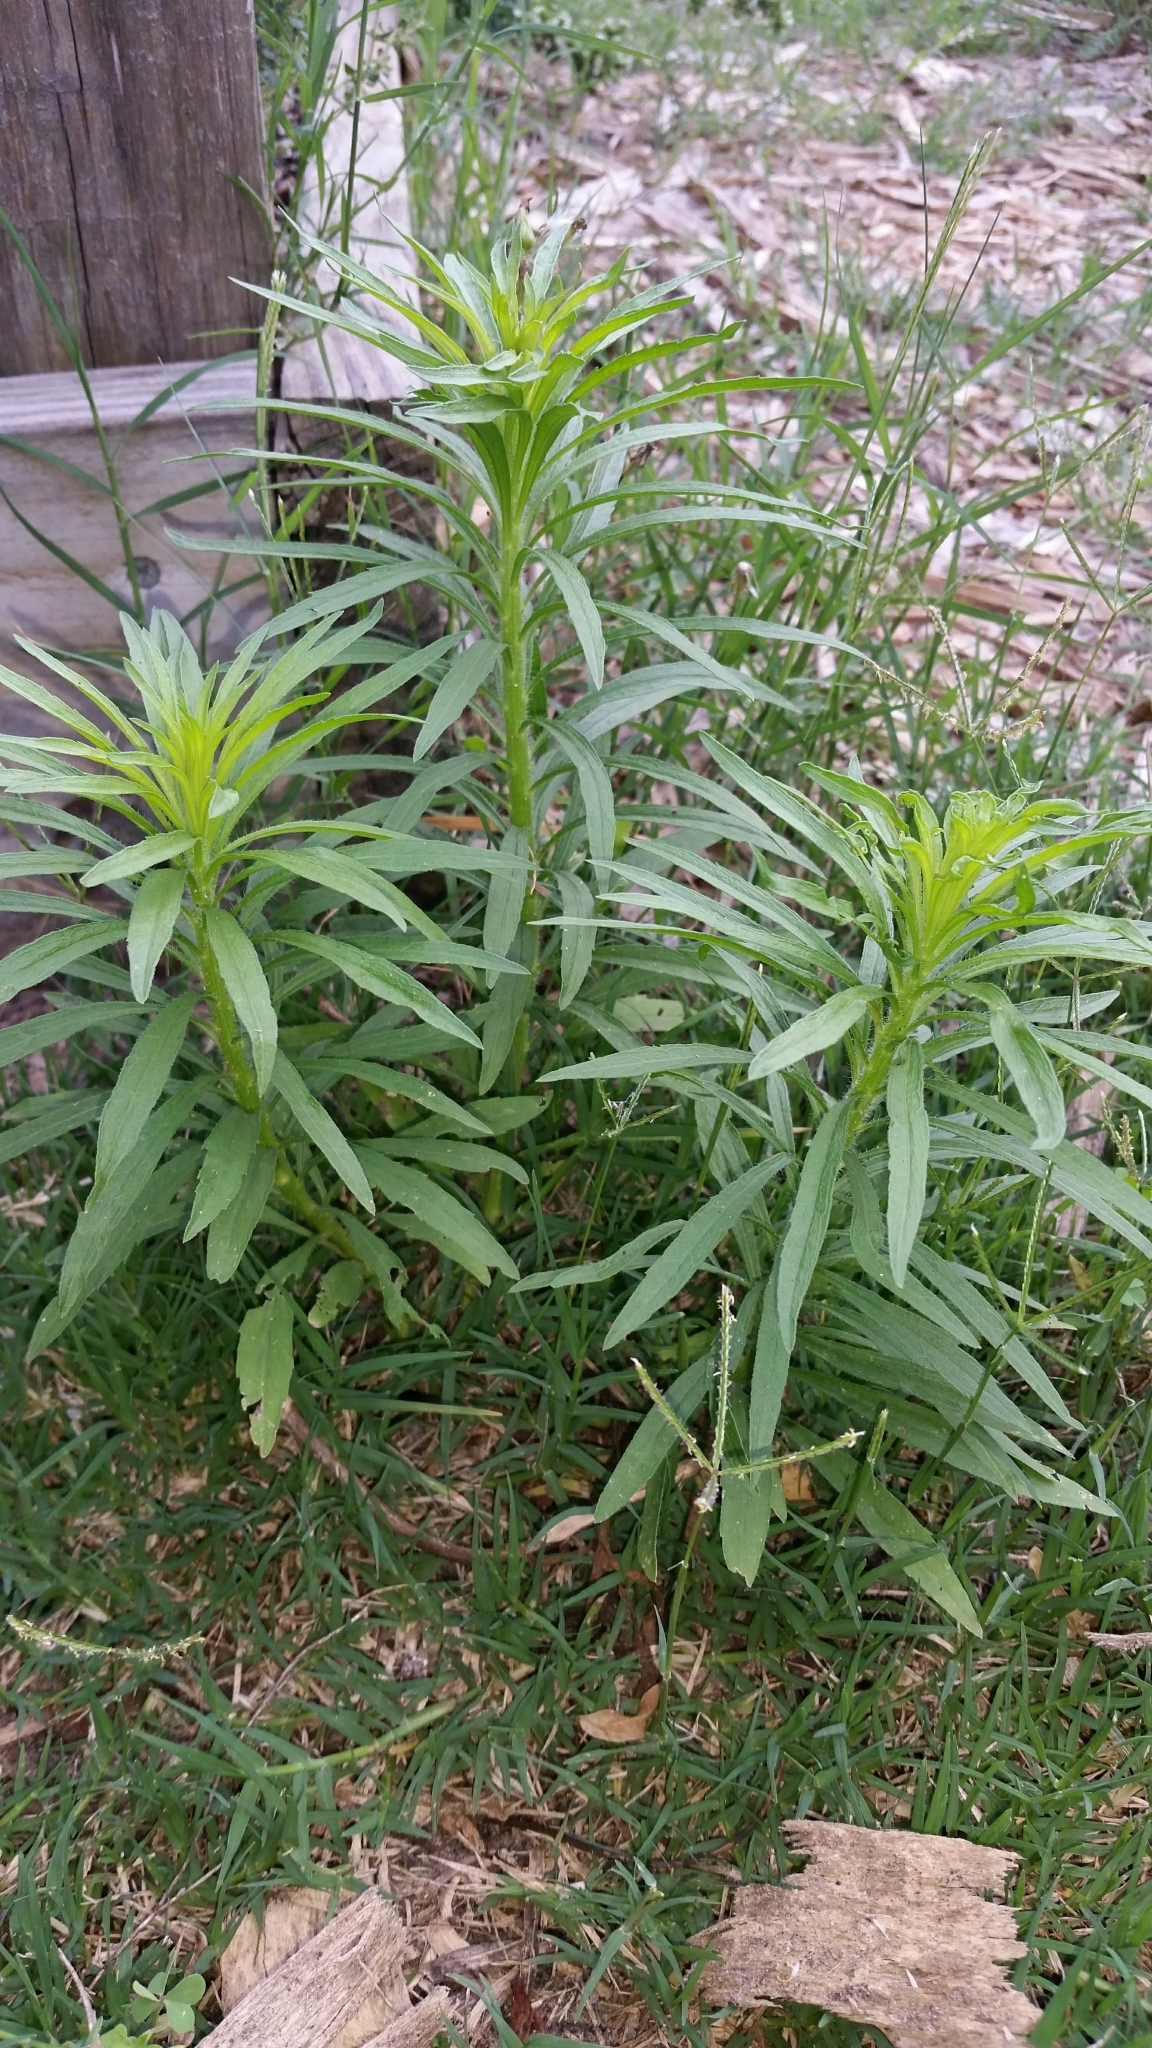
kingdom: Plantae
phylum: Tracheophyta
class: Magnoliopsida
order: Asterales
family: Asteraceae
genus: Erigeron
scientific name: Erigeron canadensis
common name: Canadian fleabane
